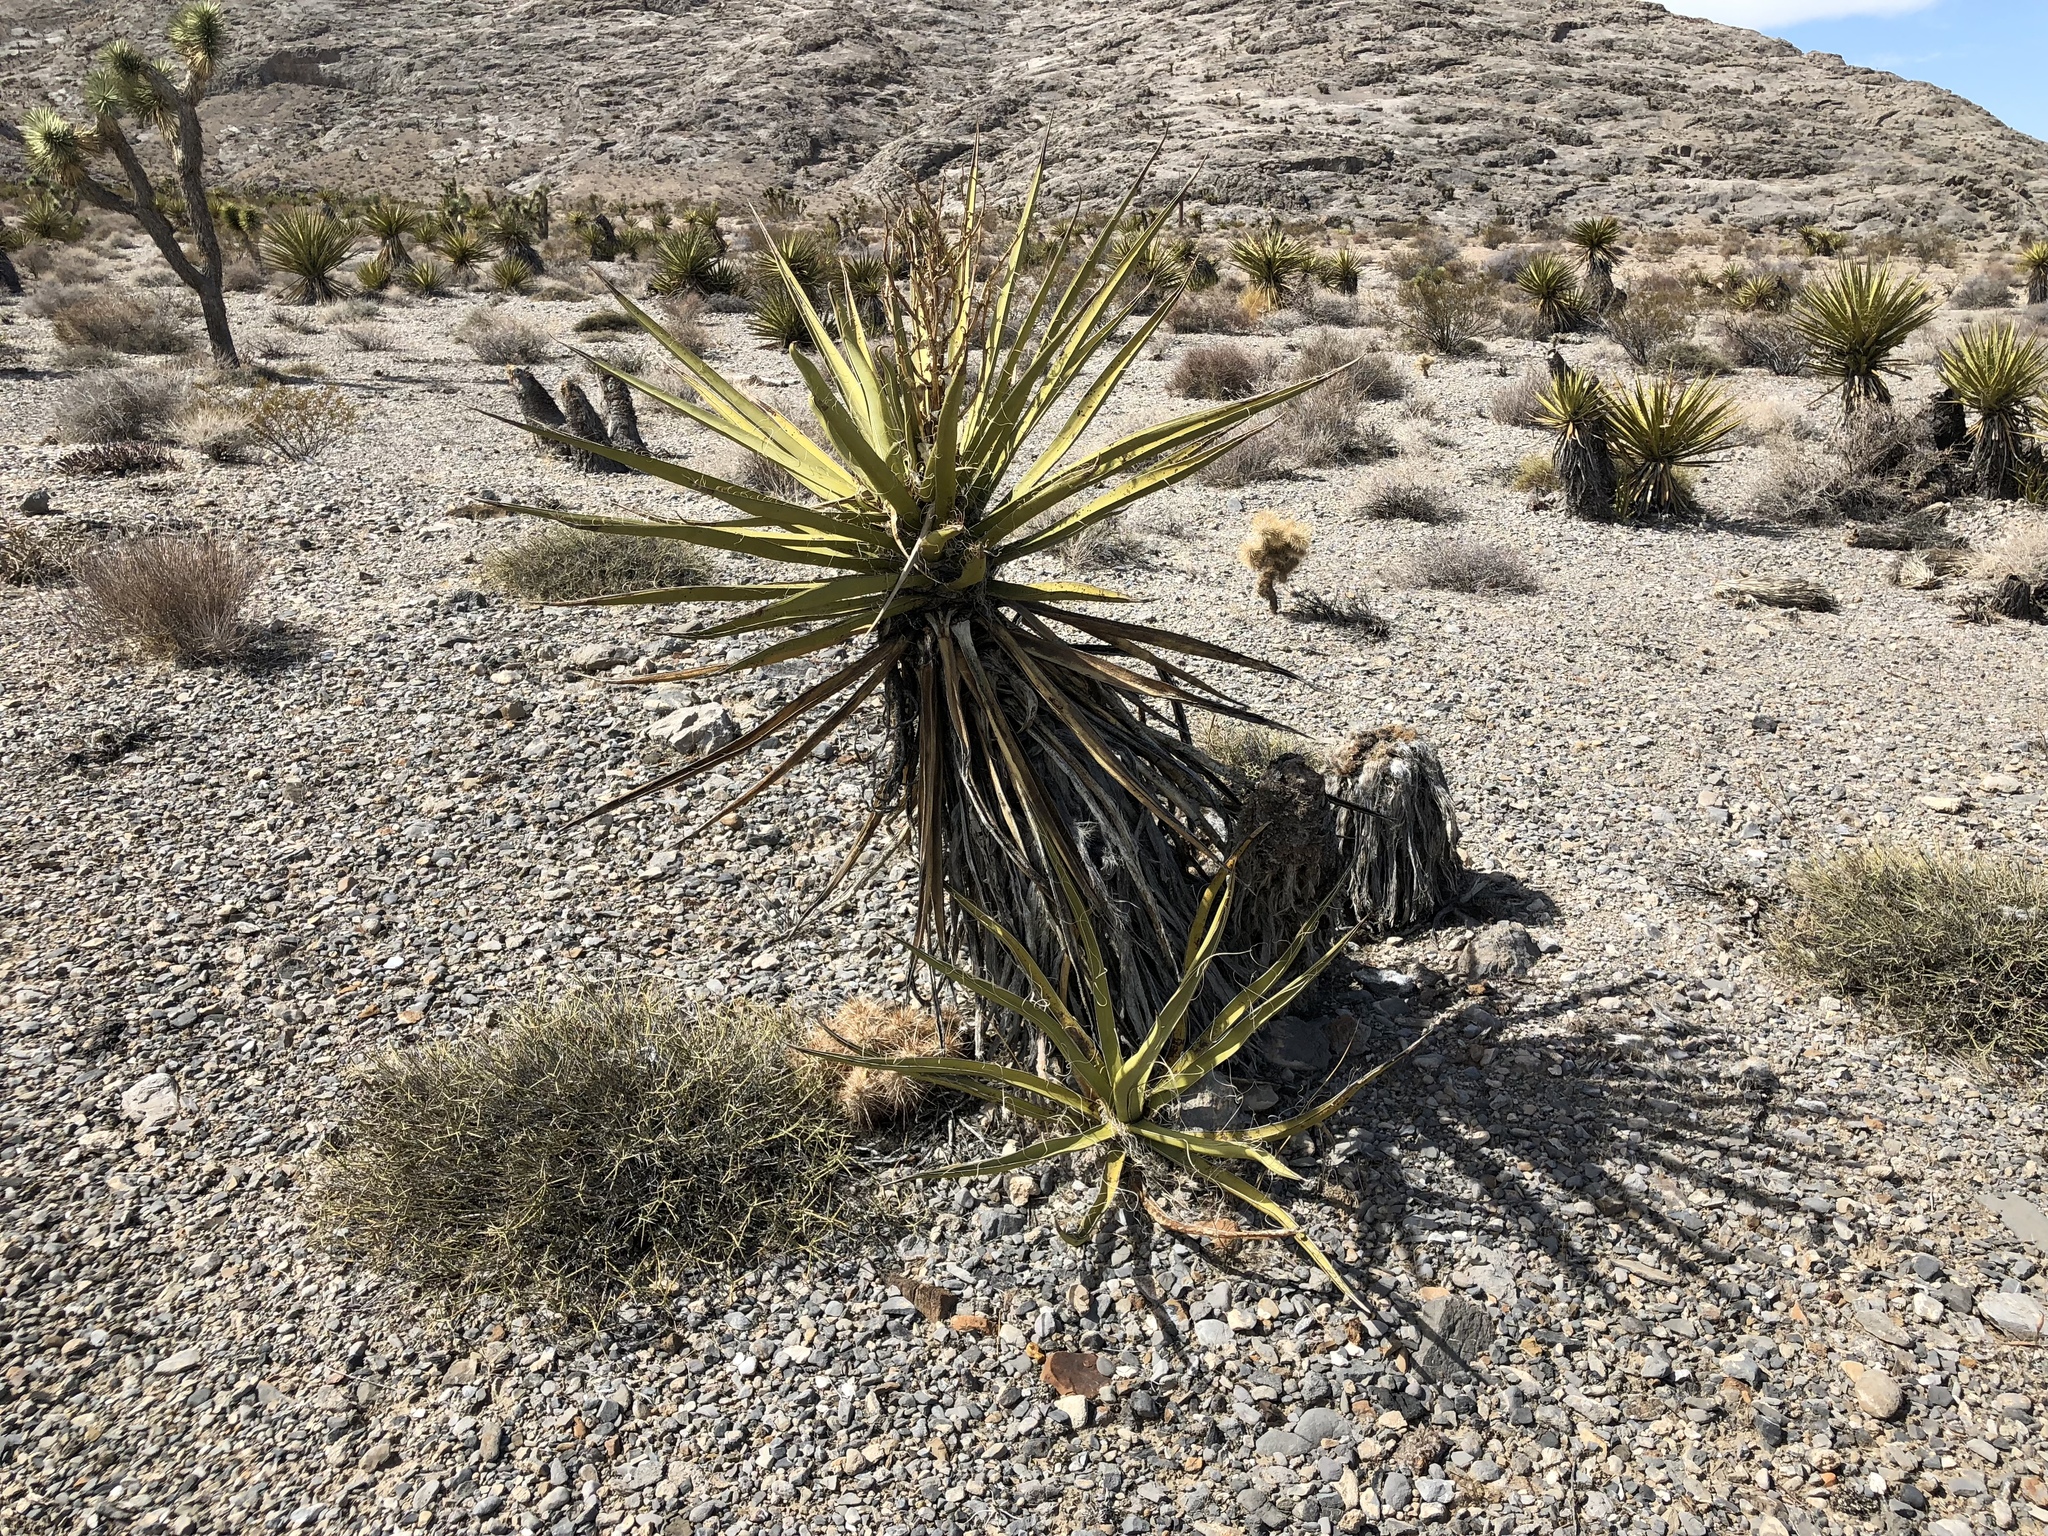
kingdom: Plantae
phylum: Tracheophyta
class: Liliopsida
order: Asparagales
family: Asparagaceae
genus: Yucca
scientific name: Yucca schidigera
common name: Mojave yucca
